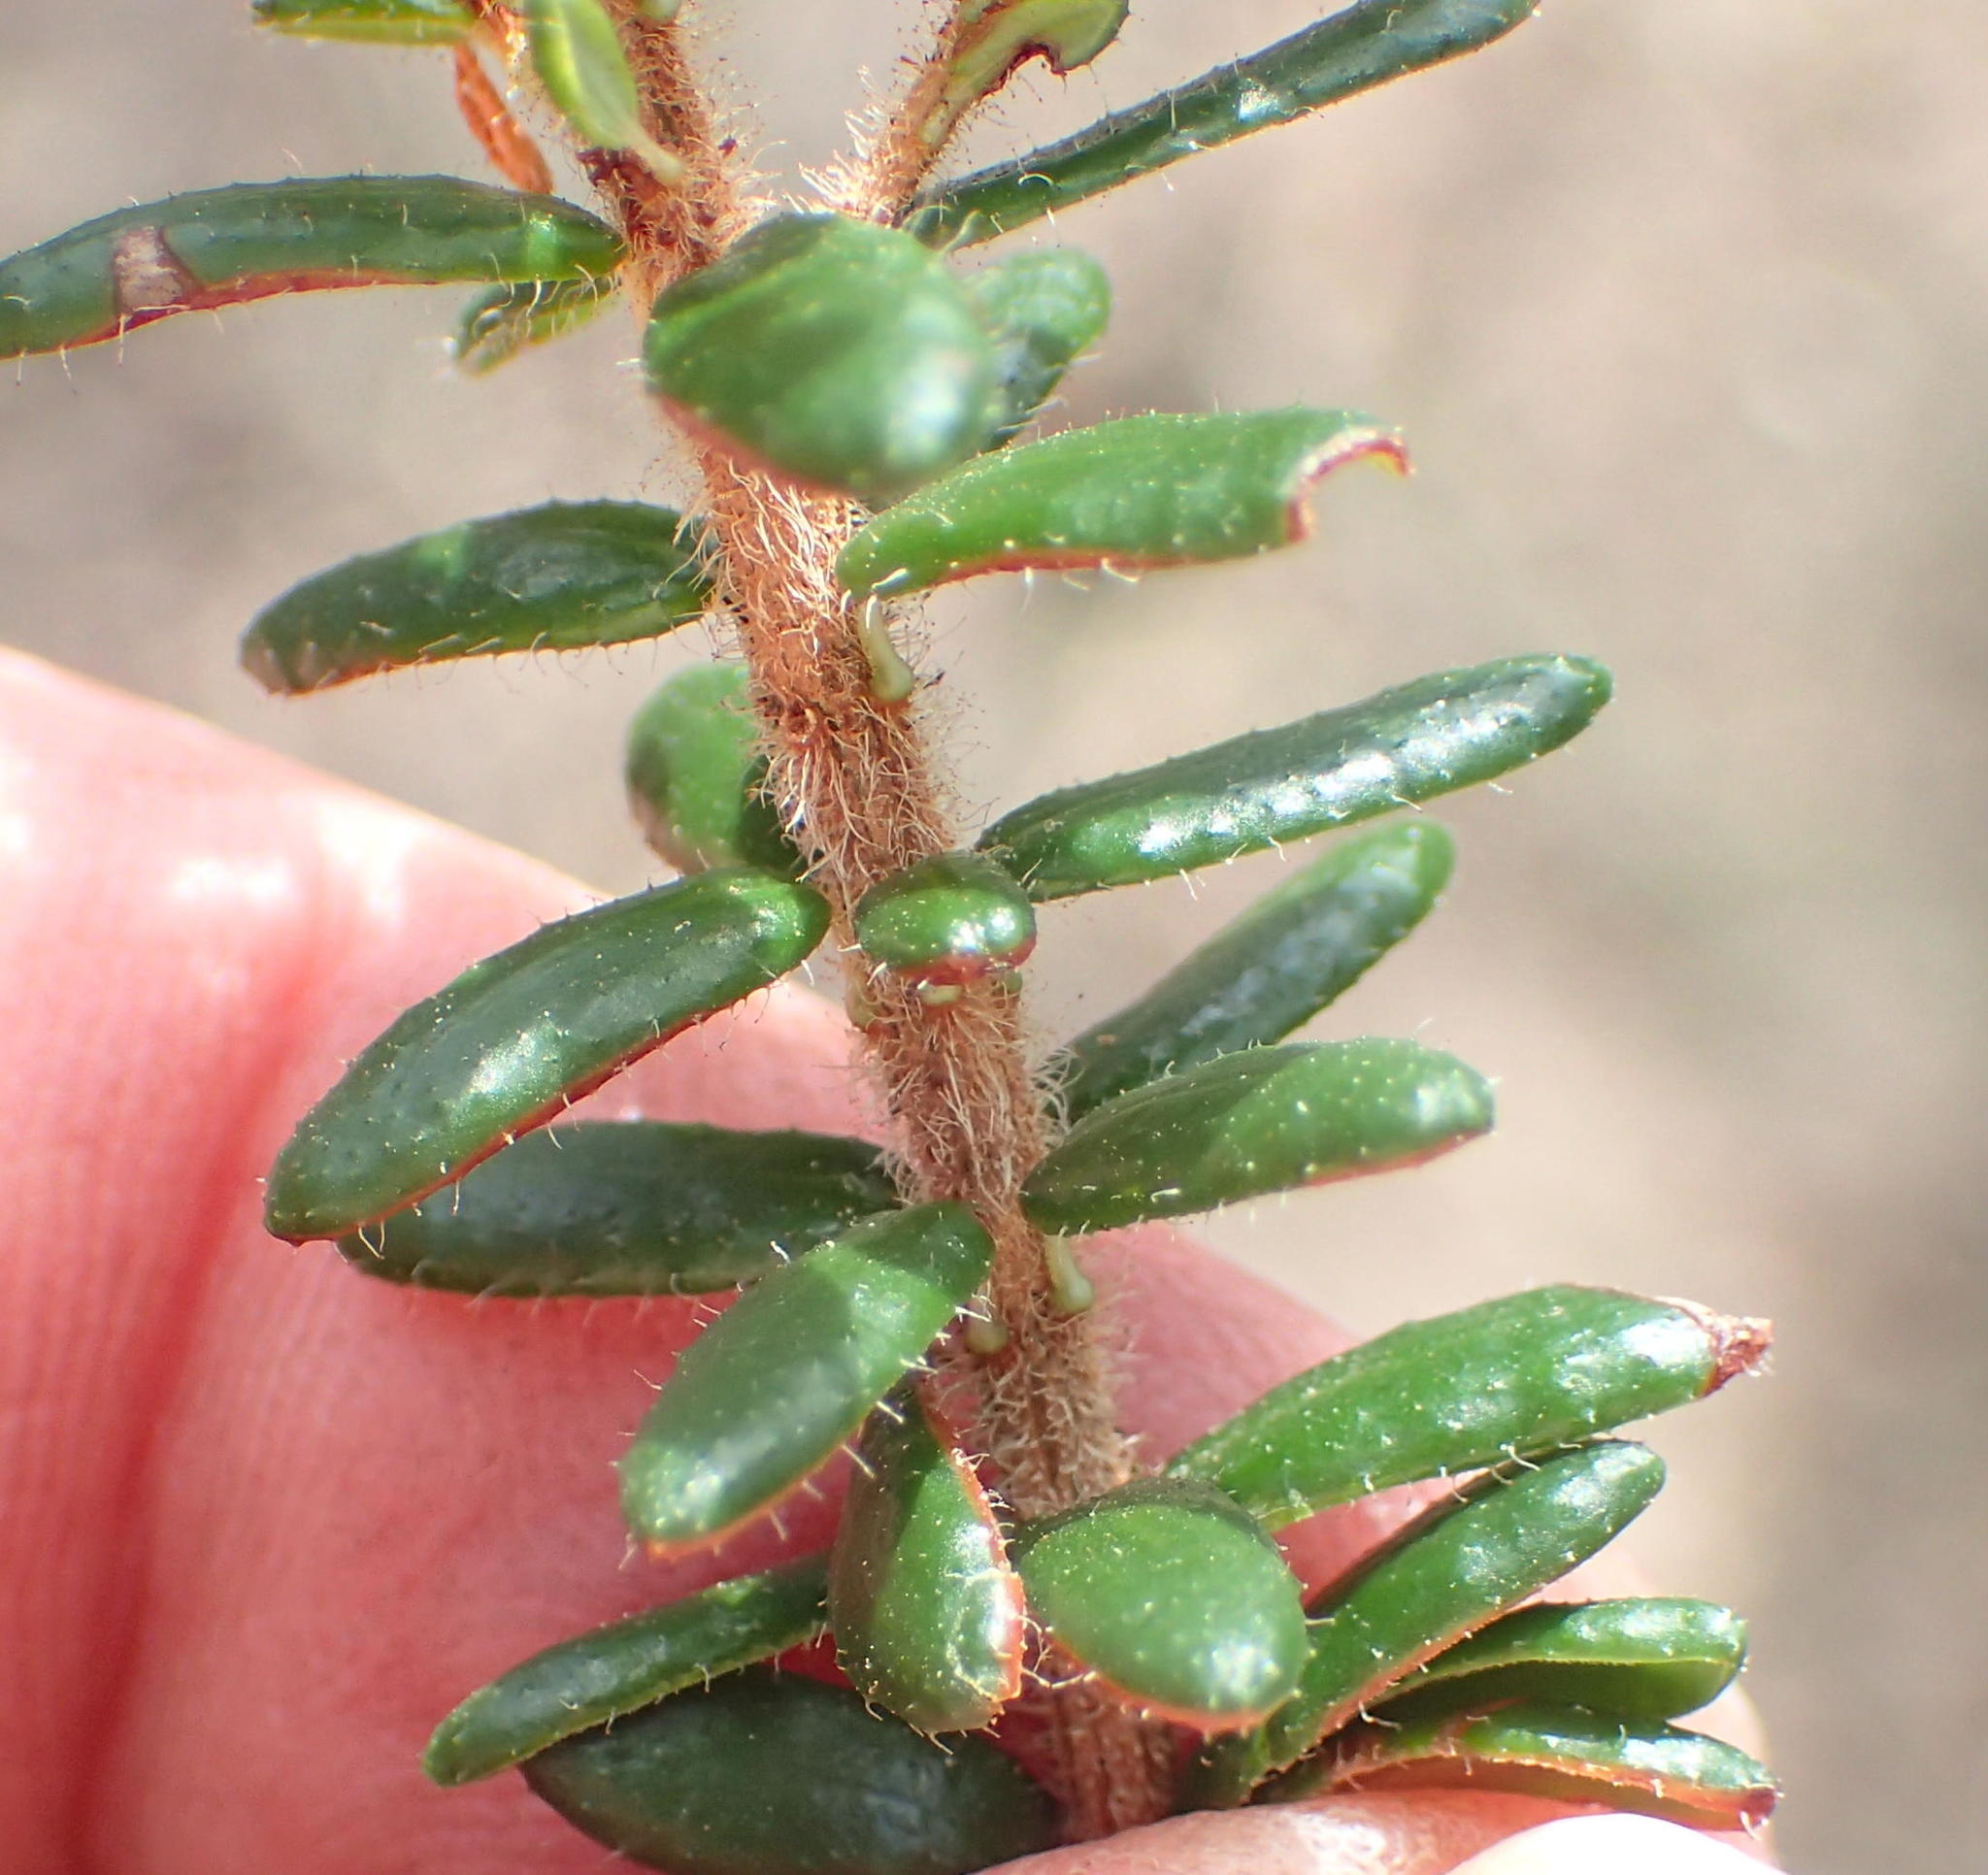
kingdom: Plantae
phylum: Tracheophyta
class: Magnoliopsida
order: Ericales
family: Ericaceae
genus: Erica
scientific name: Erica glandulosa
